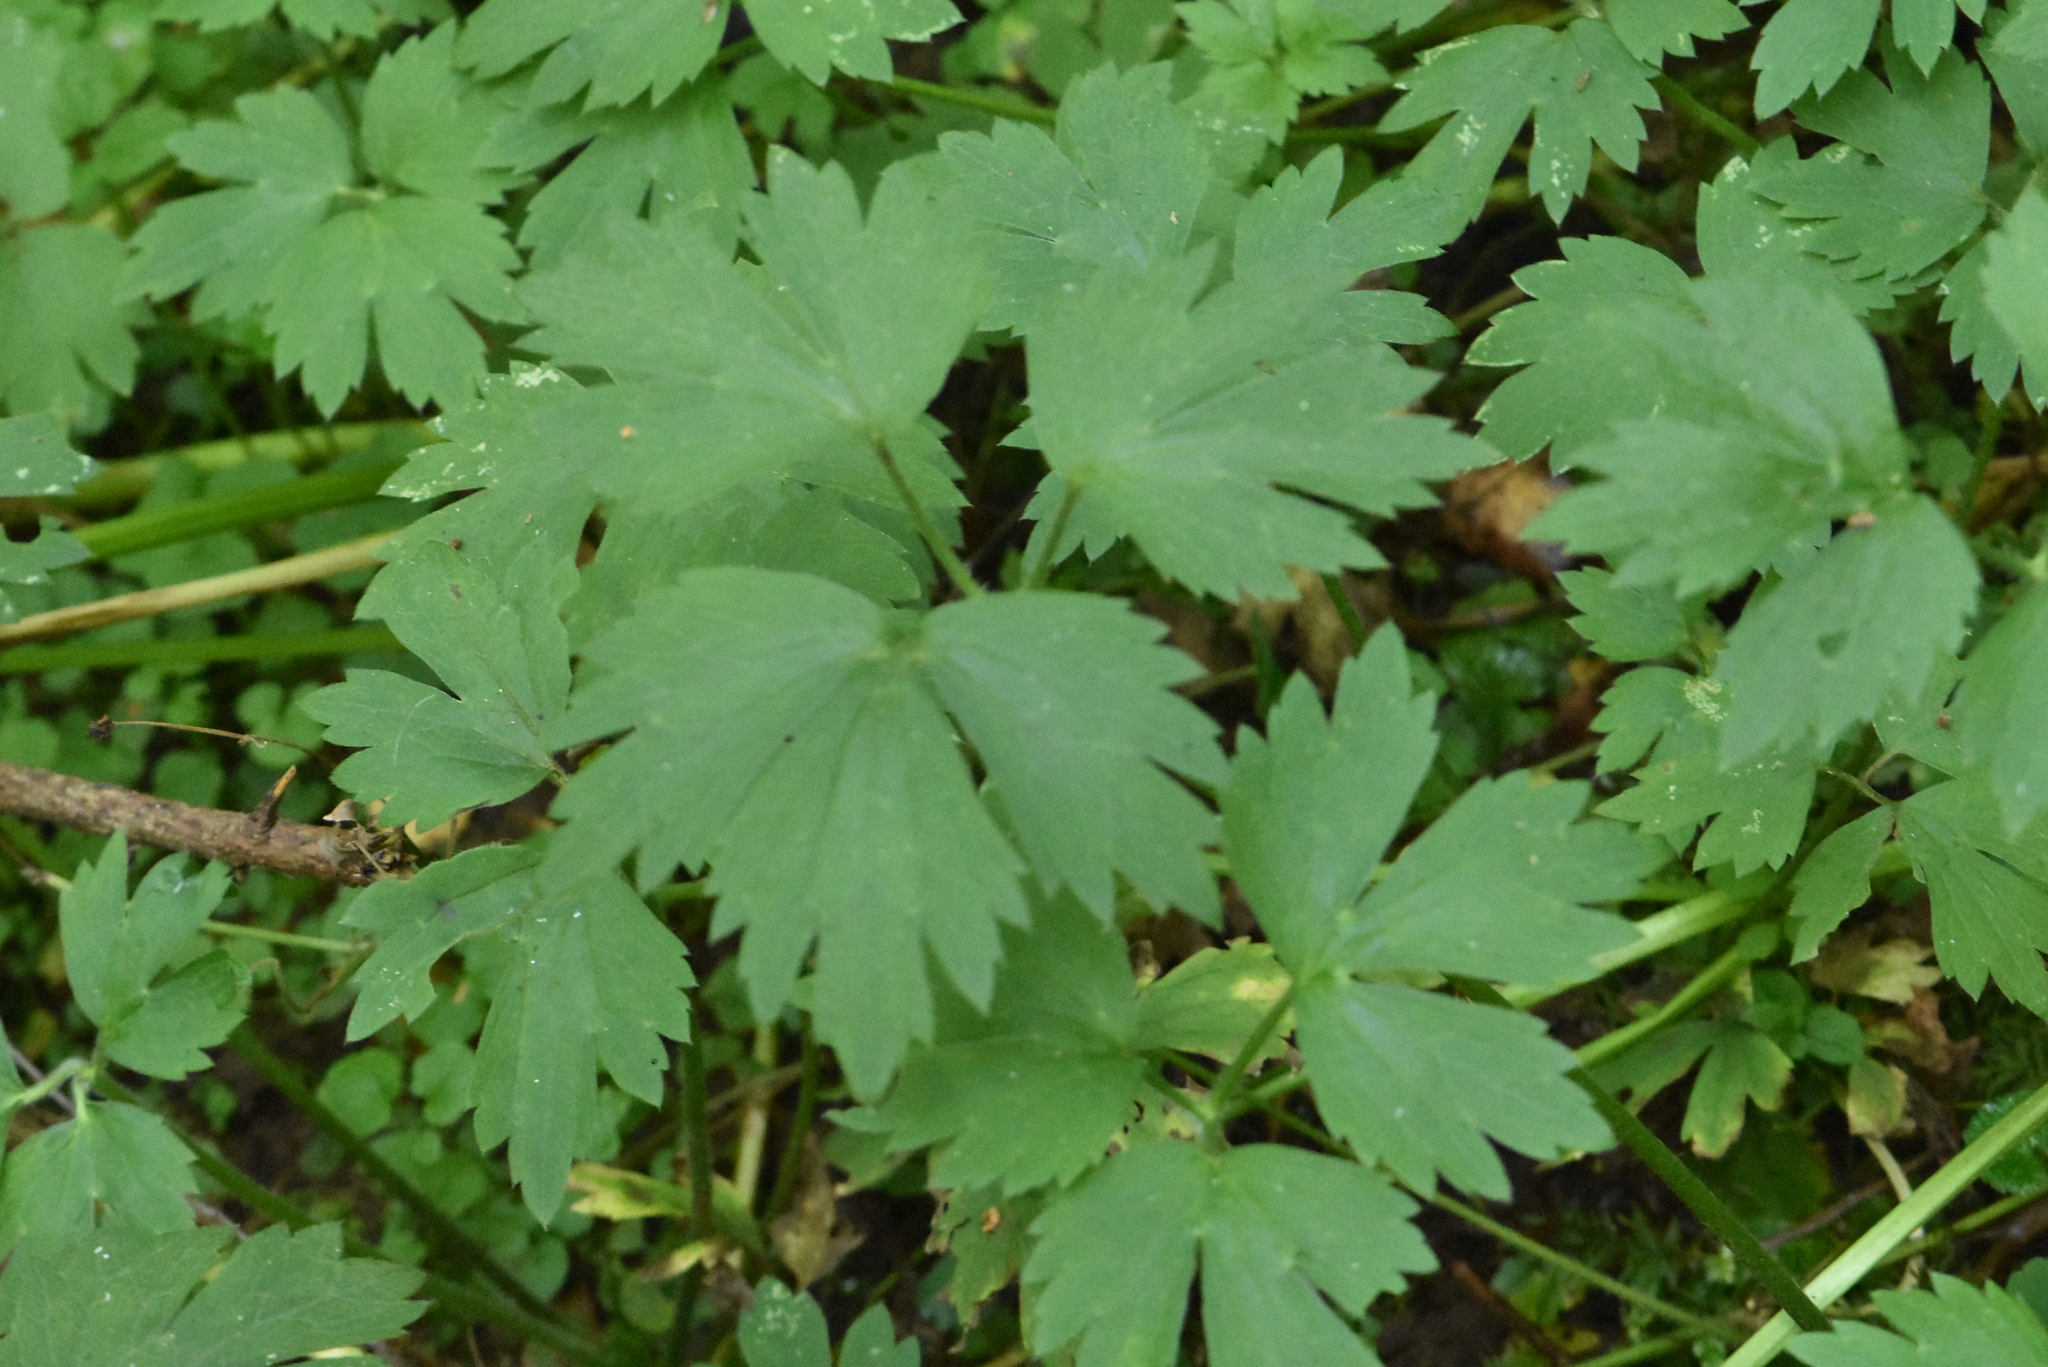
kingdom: Plantae
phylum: Tracheophyta
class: Magnoliopsida
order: Ranunculales
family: Ranunculaceae
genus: Ranunculus
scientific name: Ranunculus repens
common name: Creeping buttercup
